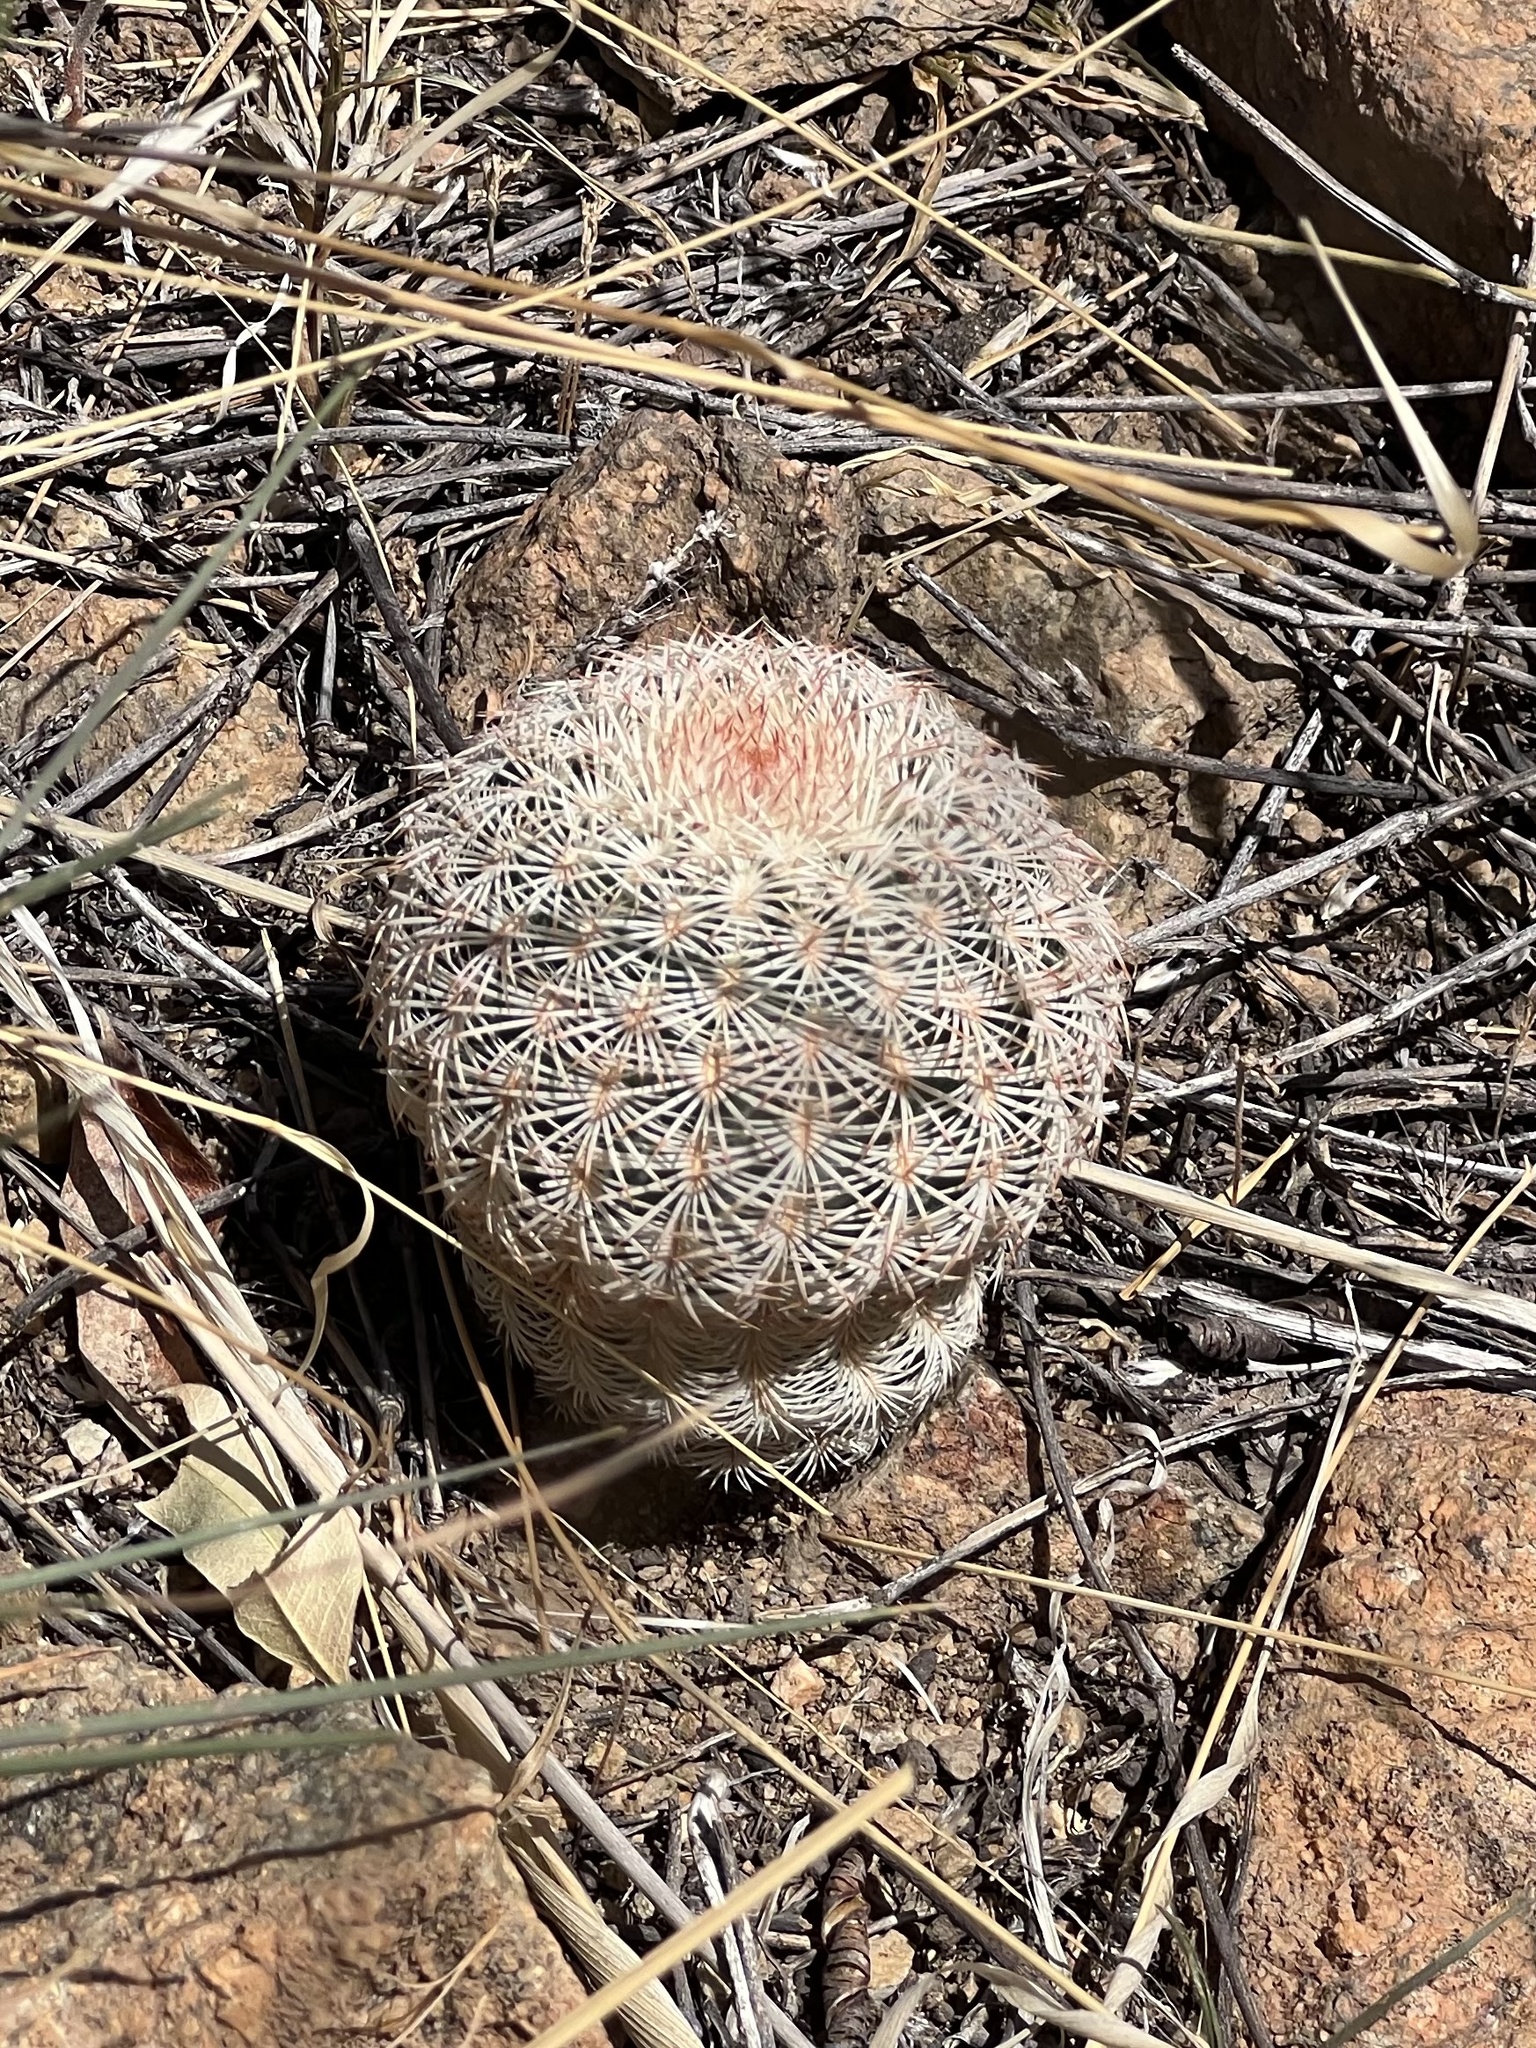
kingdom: Plantae
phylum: Tracheophyta
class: Magnoliopsida
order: Caryophyllales
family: Cactaceae
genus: Echinocereus
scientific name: Echinocereus rigidissimus
